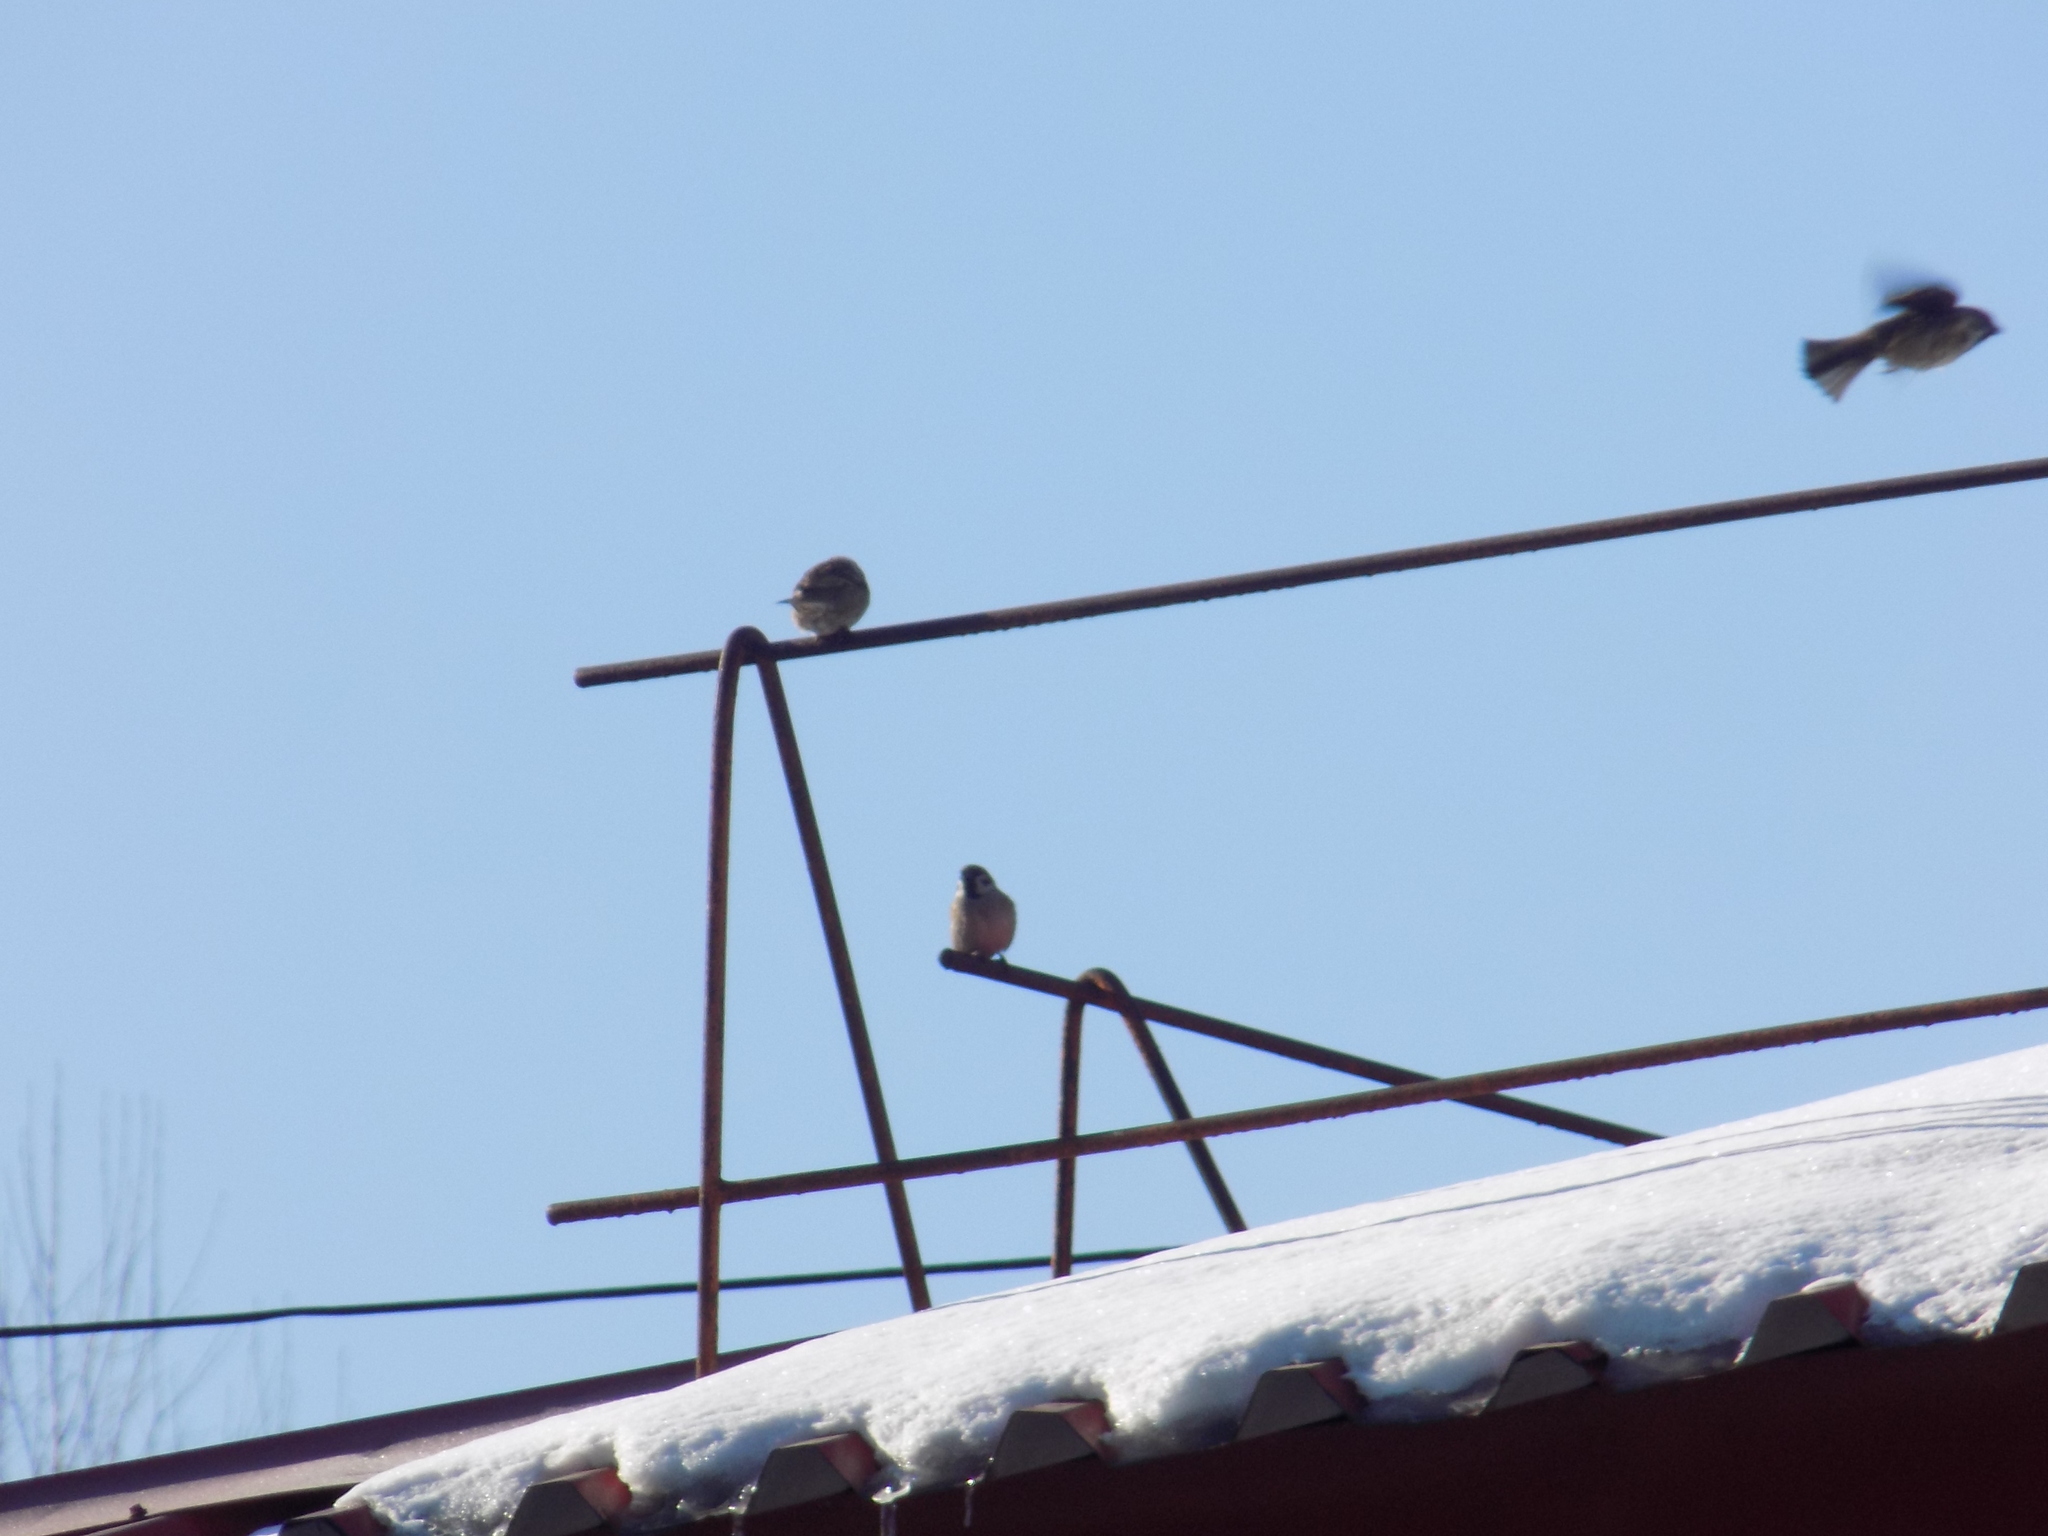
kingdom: Animalia
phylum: Chordata
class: Aves
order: Passeriformes
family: Passeridae
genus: Passer
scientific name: Passer montanus
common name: Eurasian tree sparrow
